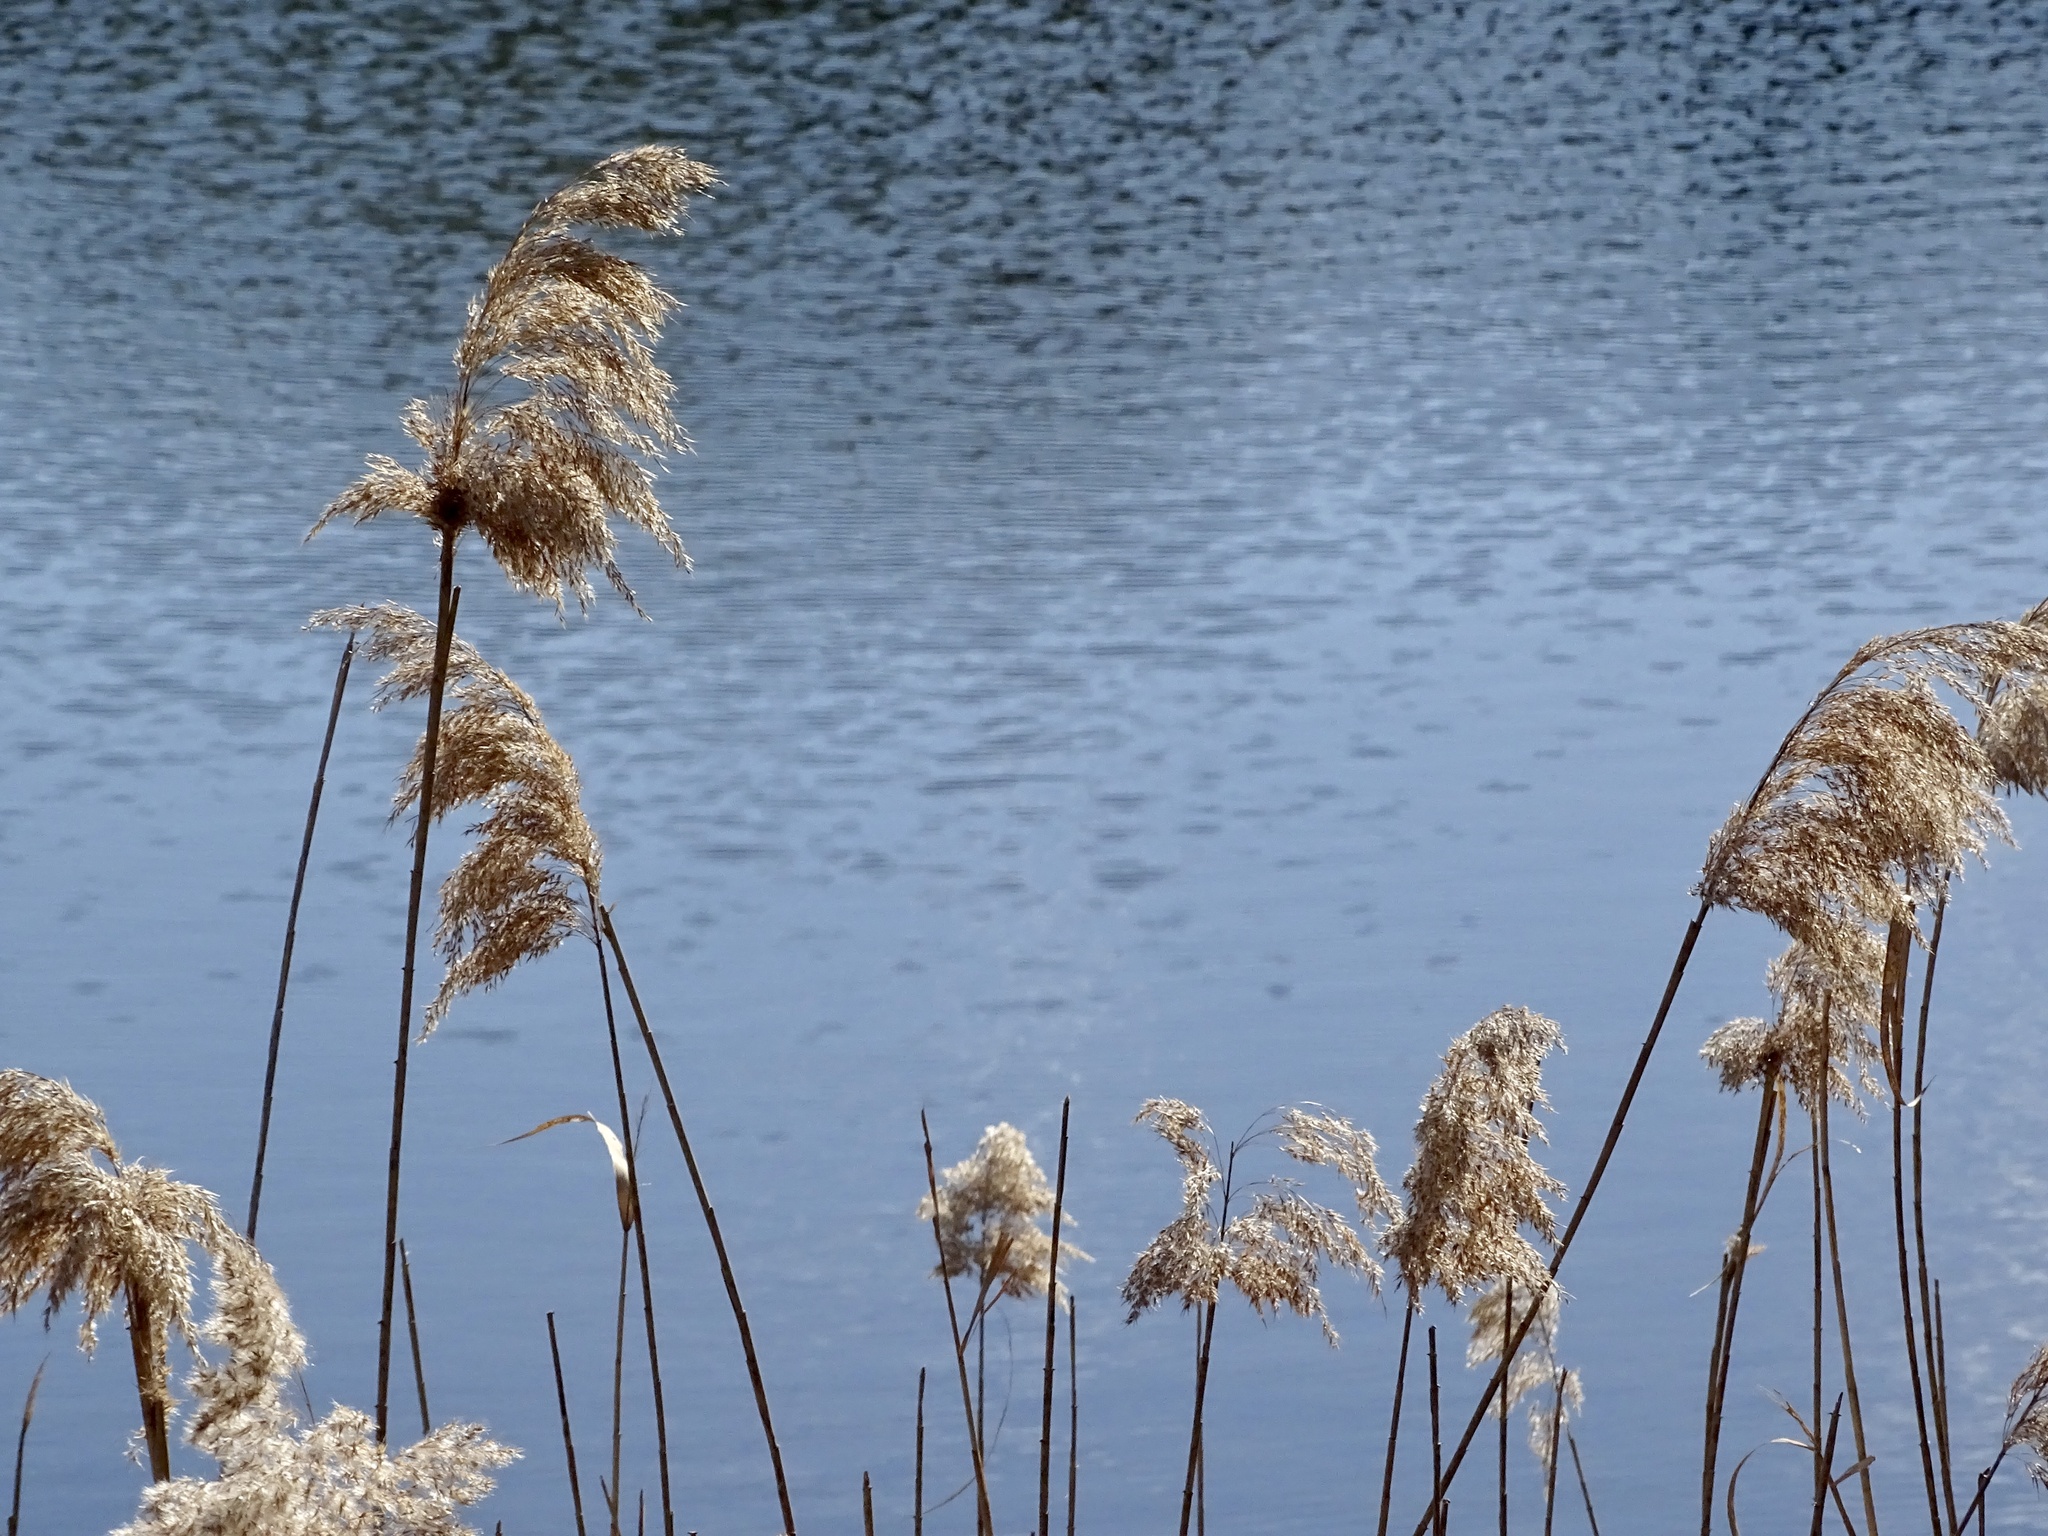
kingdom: Plantae
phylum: Tracheophyta
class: Liliopsida
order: Poales
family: Poaceae
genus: Phragmites
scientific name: Phragmites australis
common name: Common reed
